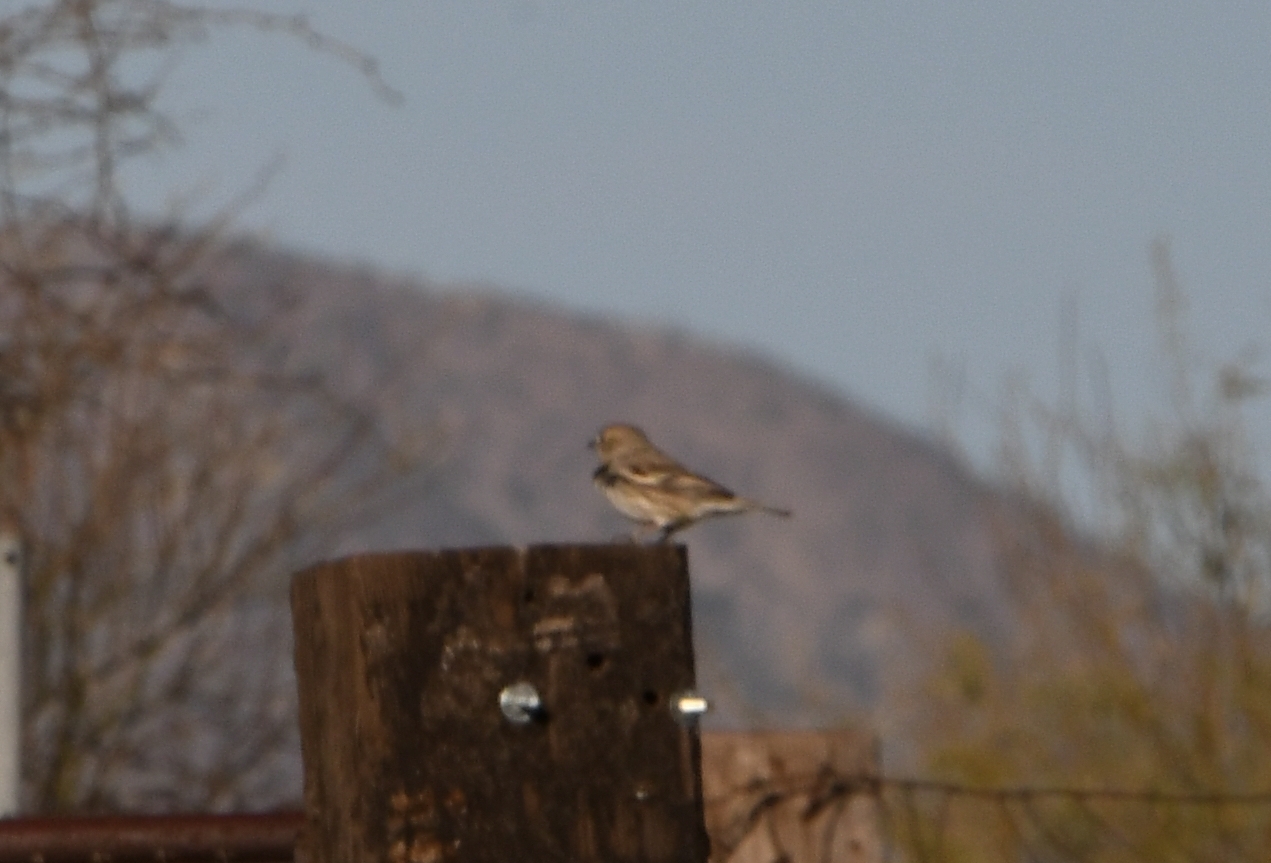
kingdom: Animalia
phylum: Chordata
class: Aves
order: Passeriformes
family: Passerellidae
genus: Calamospiza
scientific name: Calamospiza melanocorys
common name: Lark bunting
